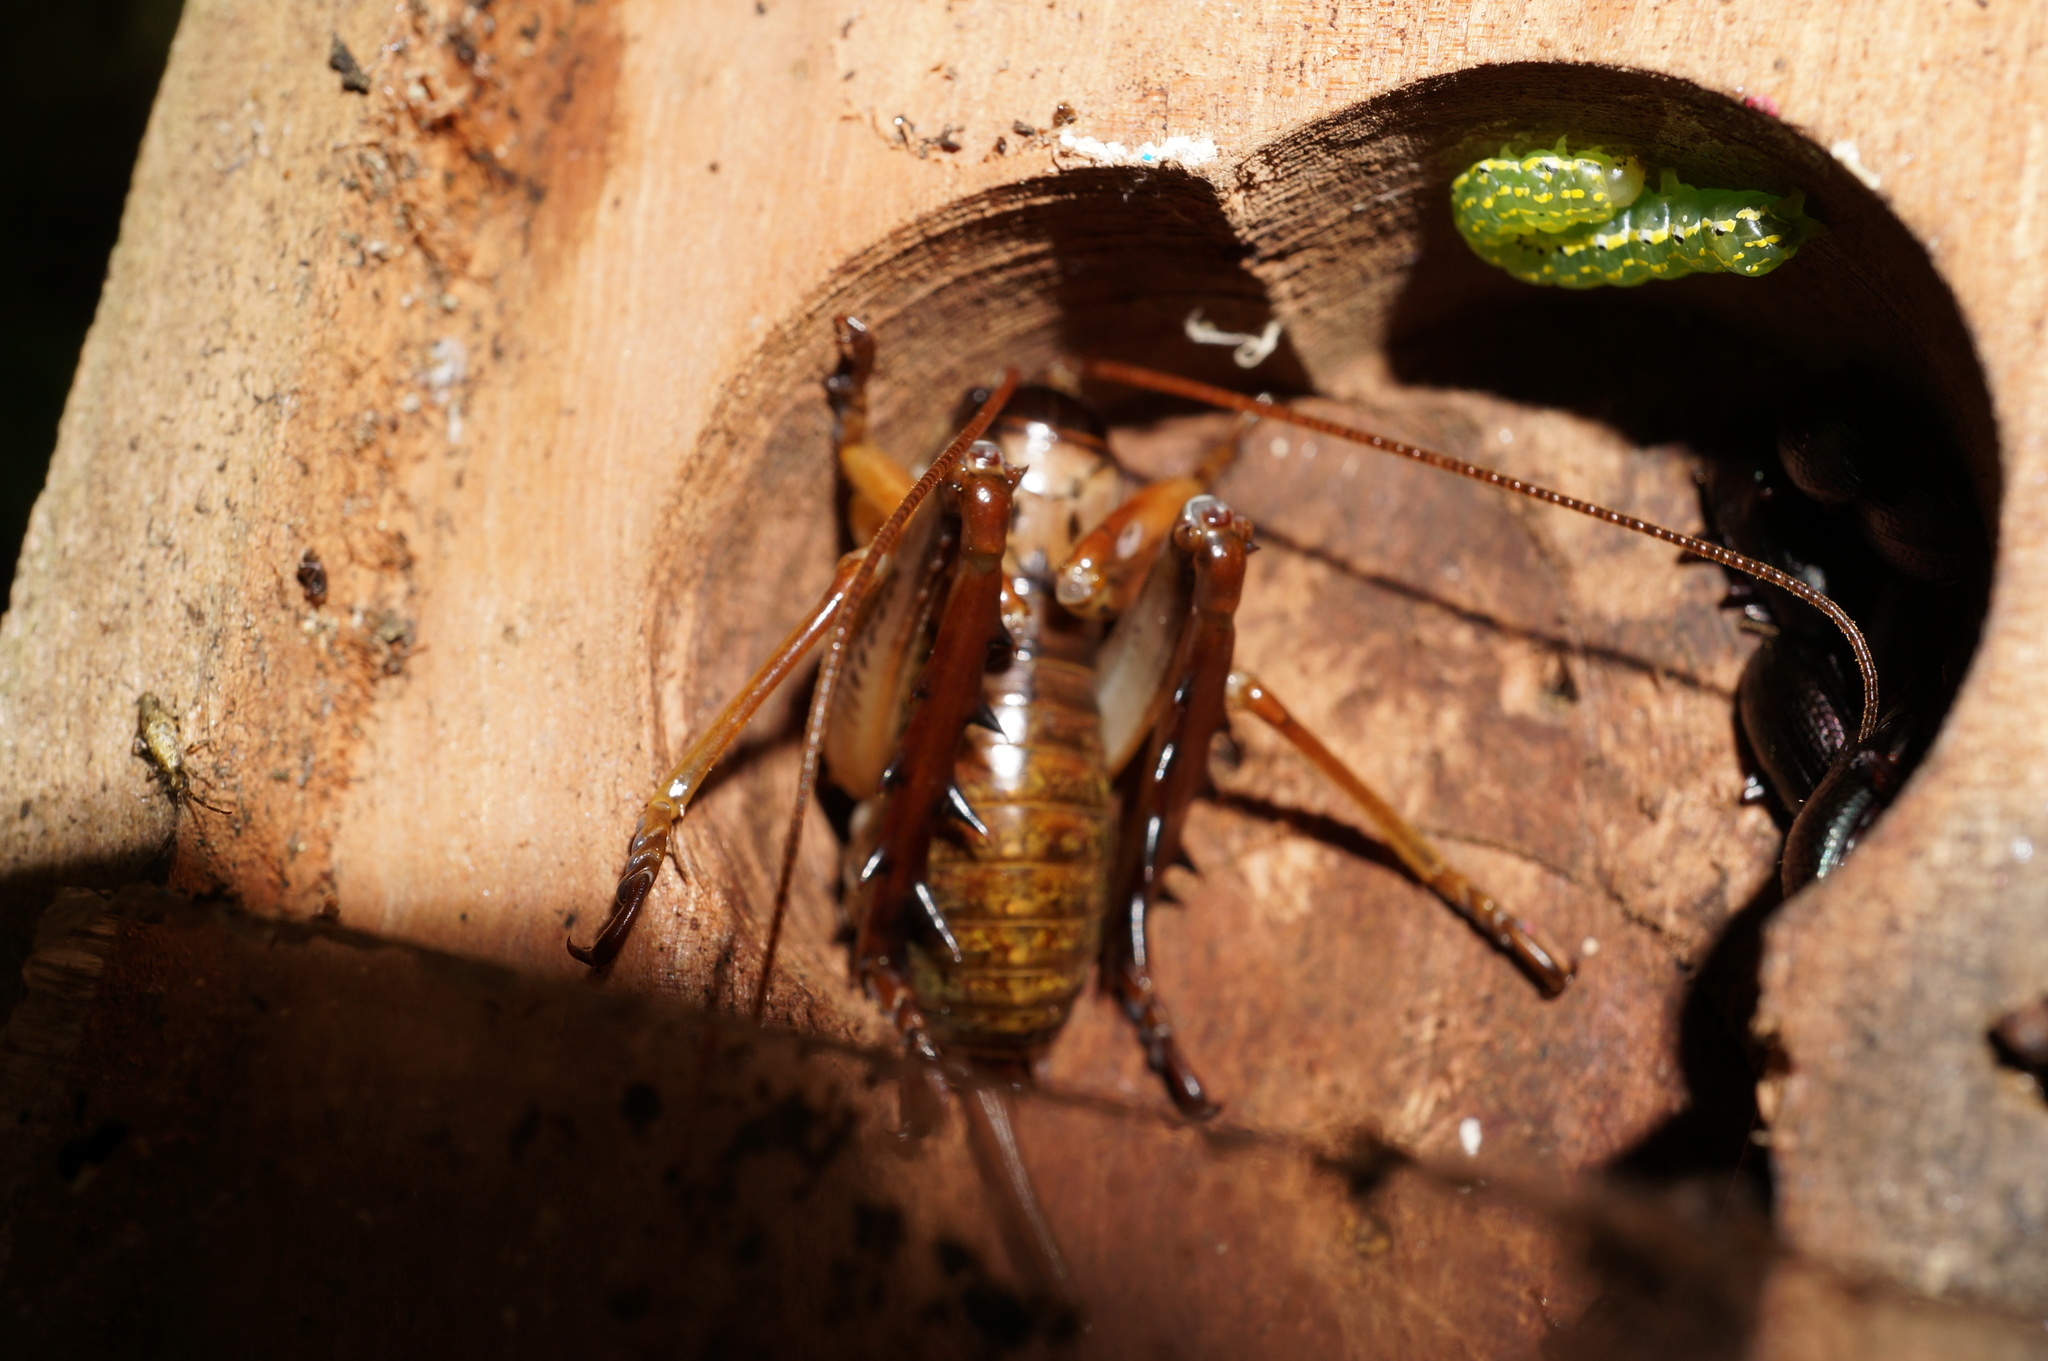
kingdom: Animalia
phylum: Arthropoda
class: Insecta
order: Orthoptera
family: Anostostomatidae
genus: Hemideina
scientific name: Hemideina thoracica
